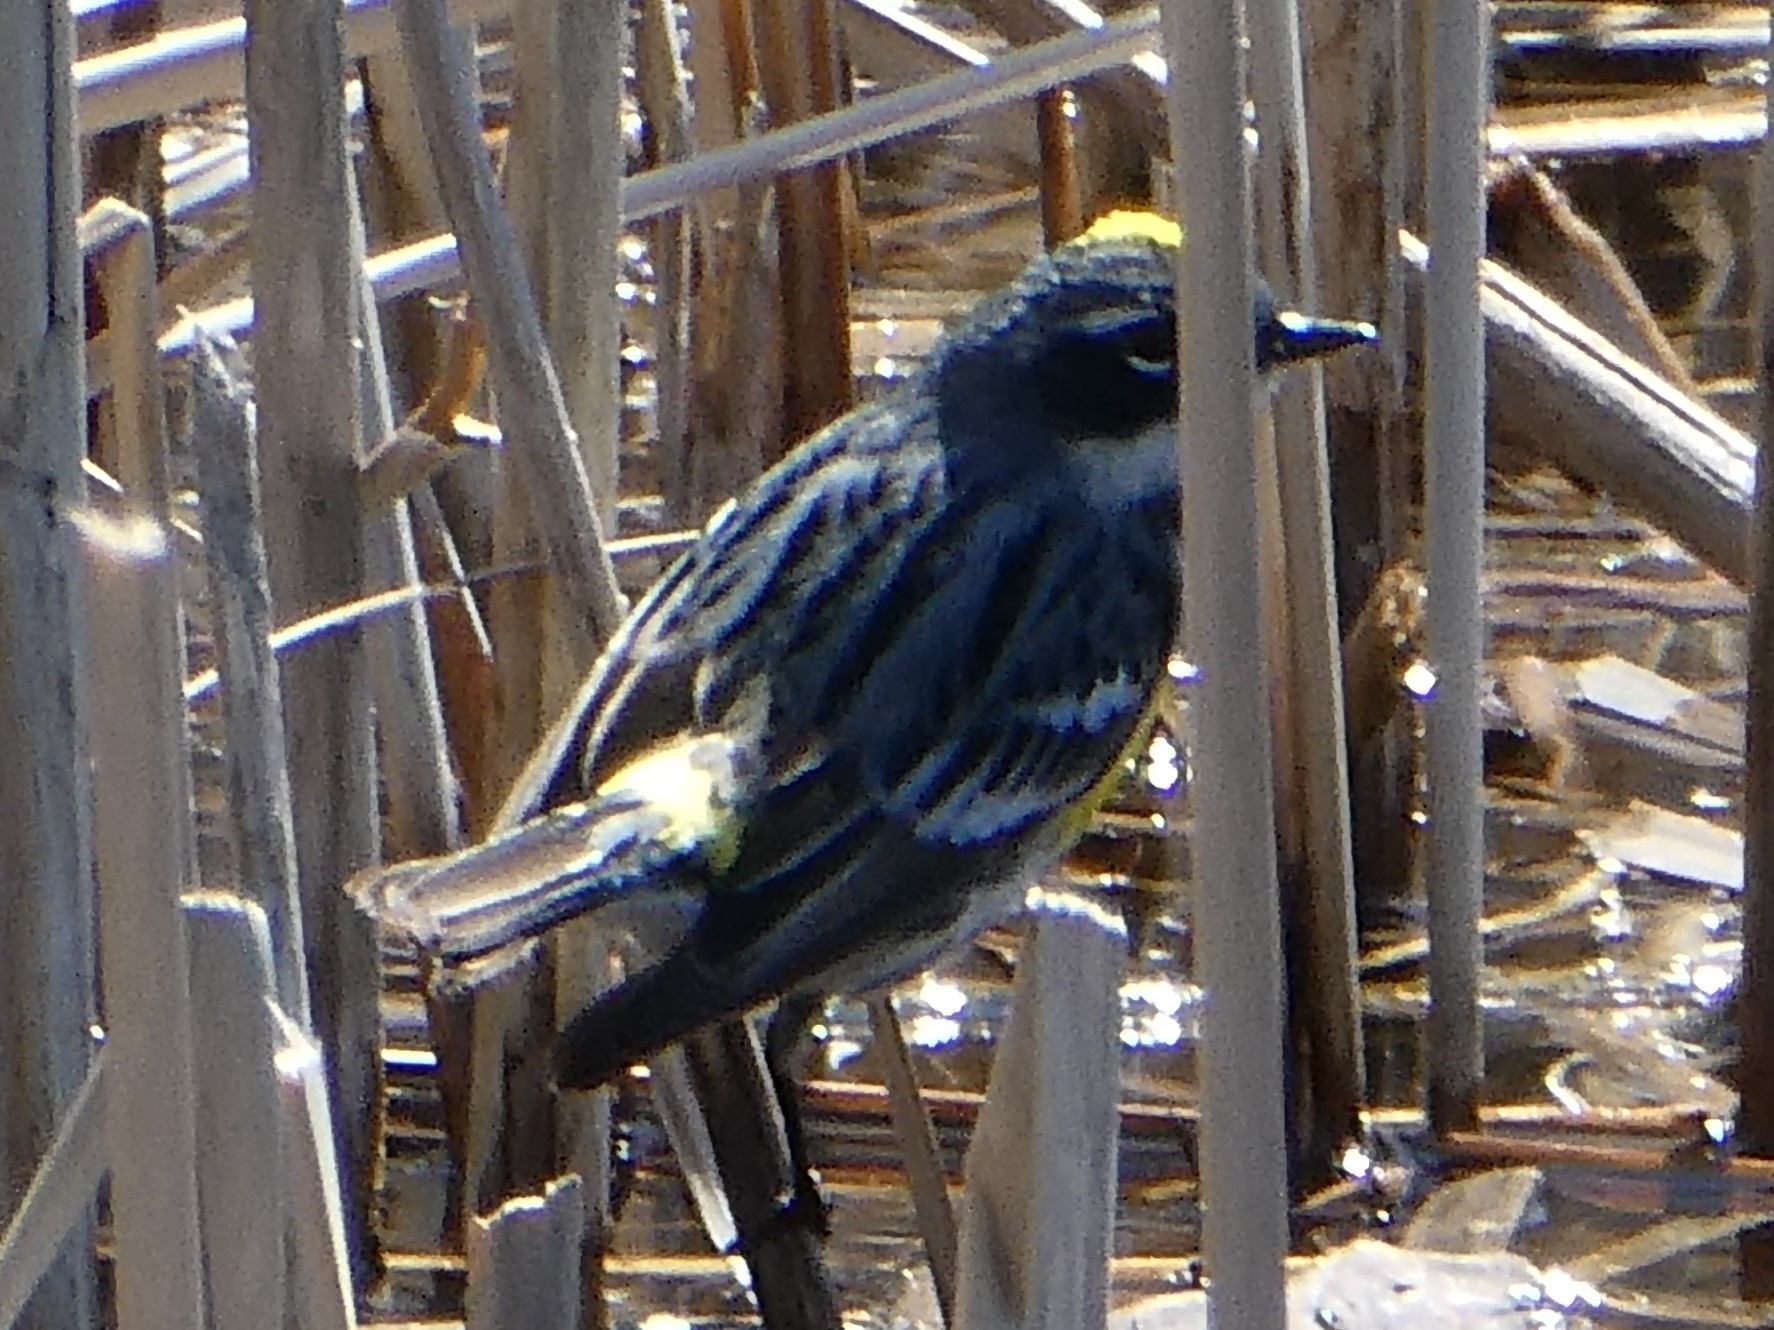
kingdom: Animalia
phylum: Chordata
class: Aves
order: Passeriformes
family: Parulidae
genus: Setophaga
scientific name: Setophaga coronata
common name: Myrtle warbler
